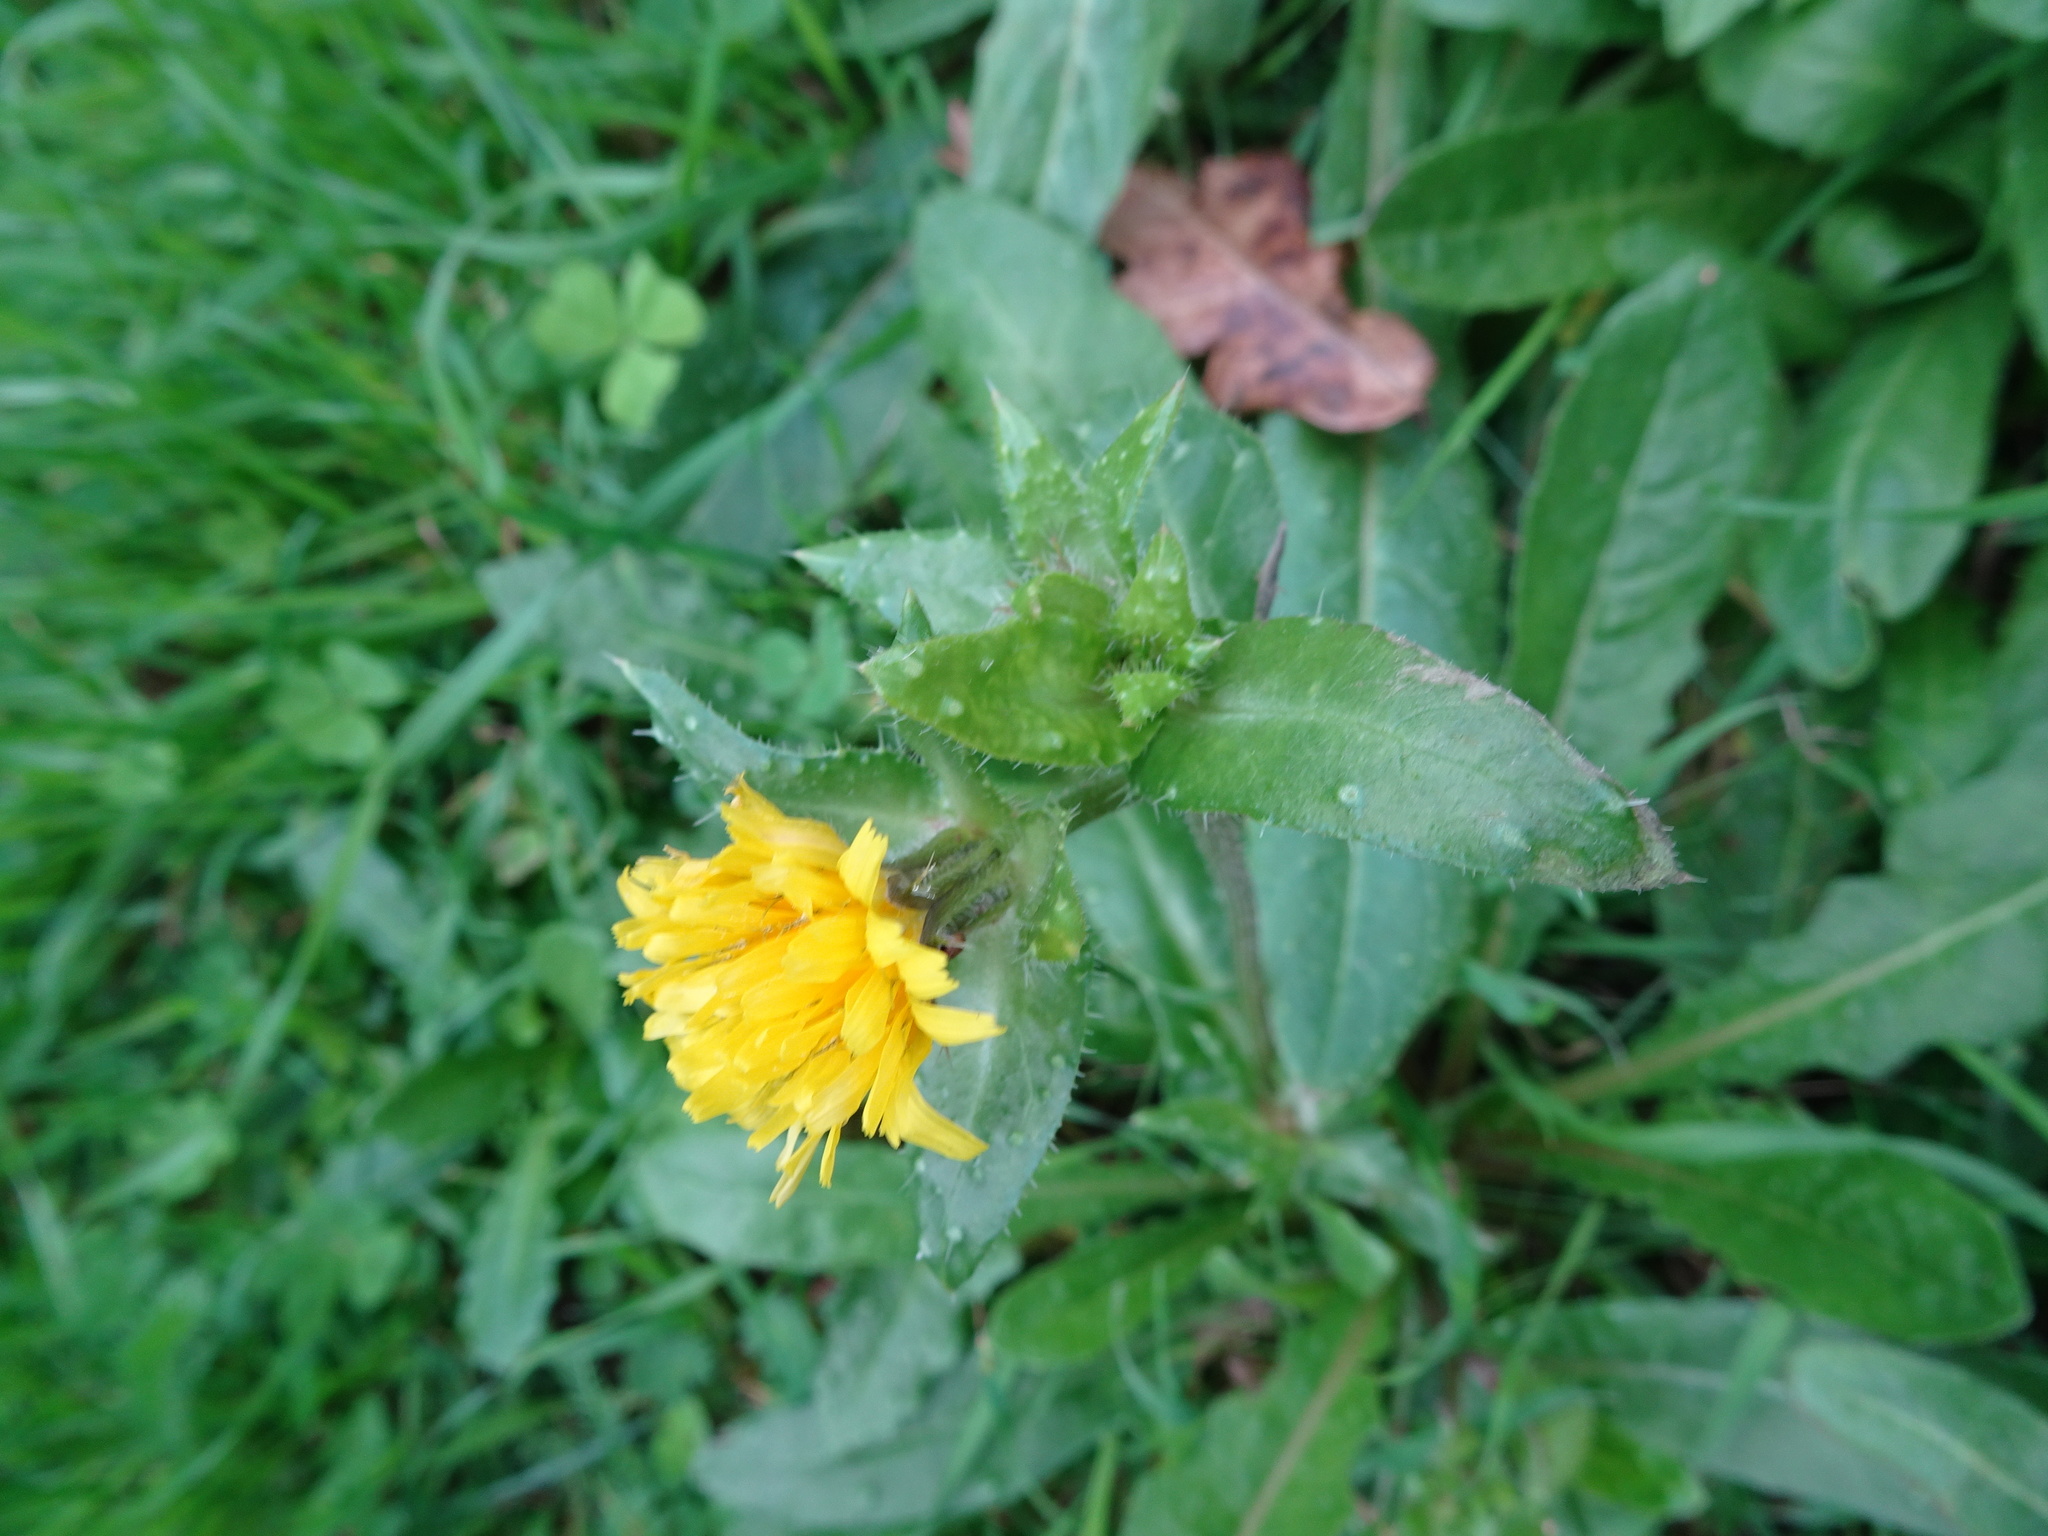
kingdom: Plantae
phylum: Tracheophyta
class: Magnoliopsida
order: Asterales
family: Asteraceae
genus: Helminthotheca
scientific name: Helminthotheca echioides
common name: Ox-tongue
